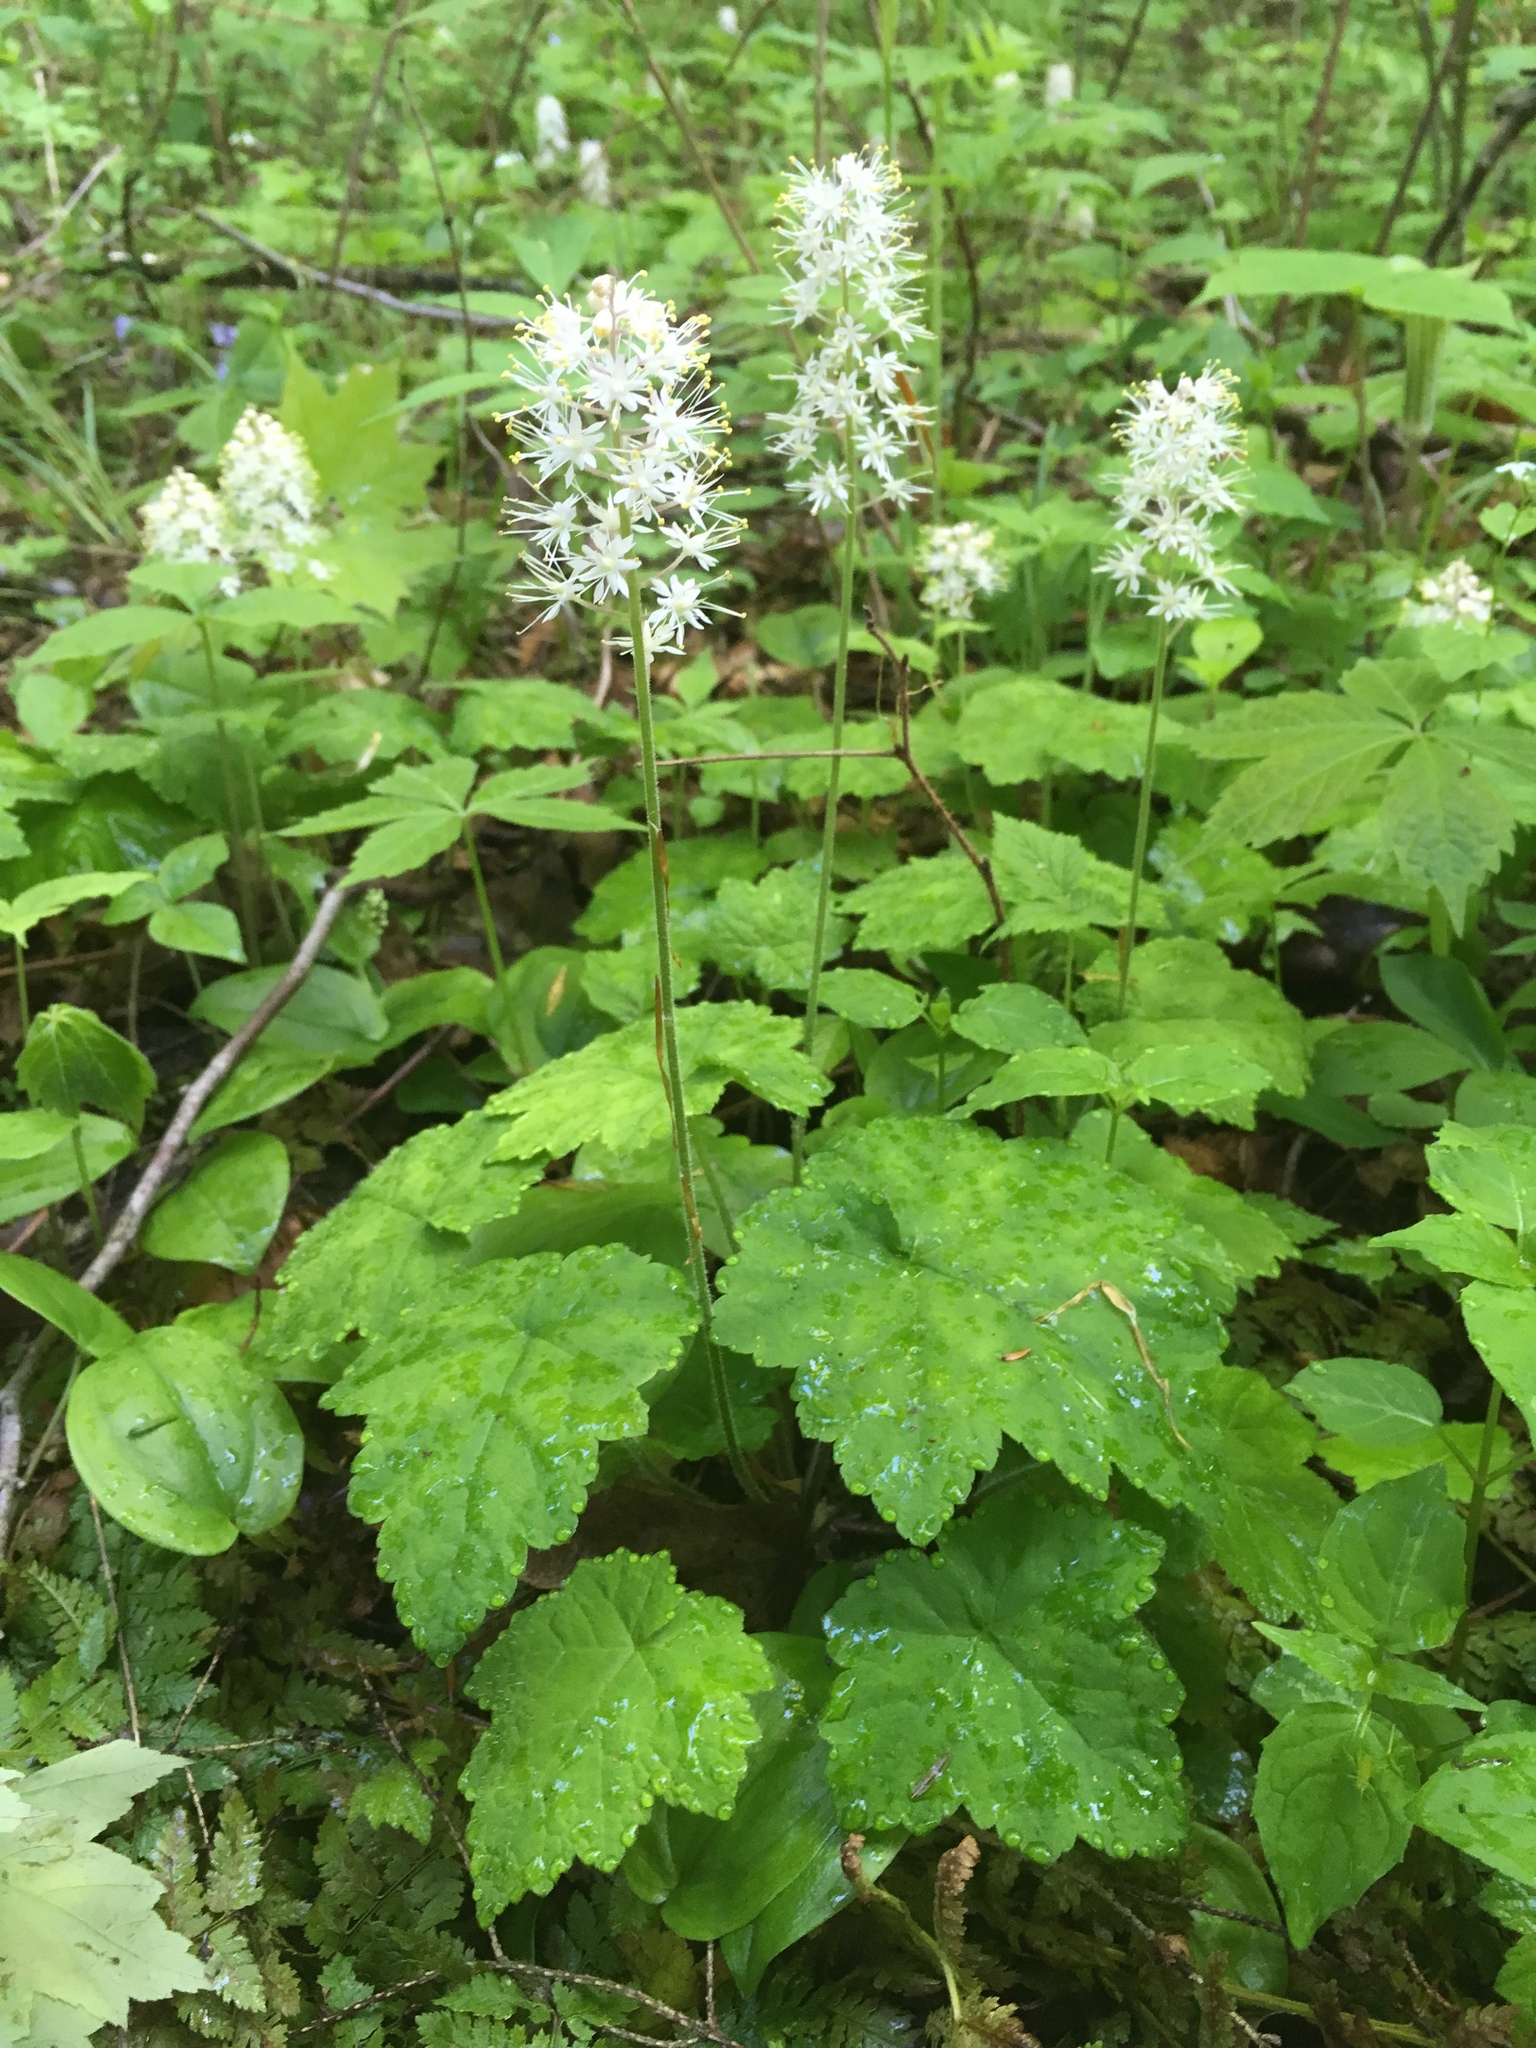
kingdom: Plantae
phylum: Tracheophyta
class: Magnoliopsida
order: Saxifragales
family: Saxifragaceae
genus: Tiarella
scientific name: Tiarella stolonifera
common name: Stoloniferous foamflower
